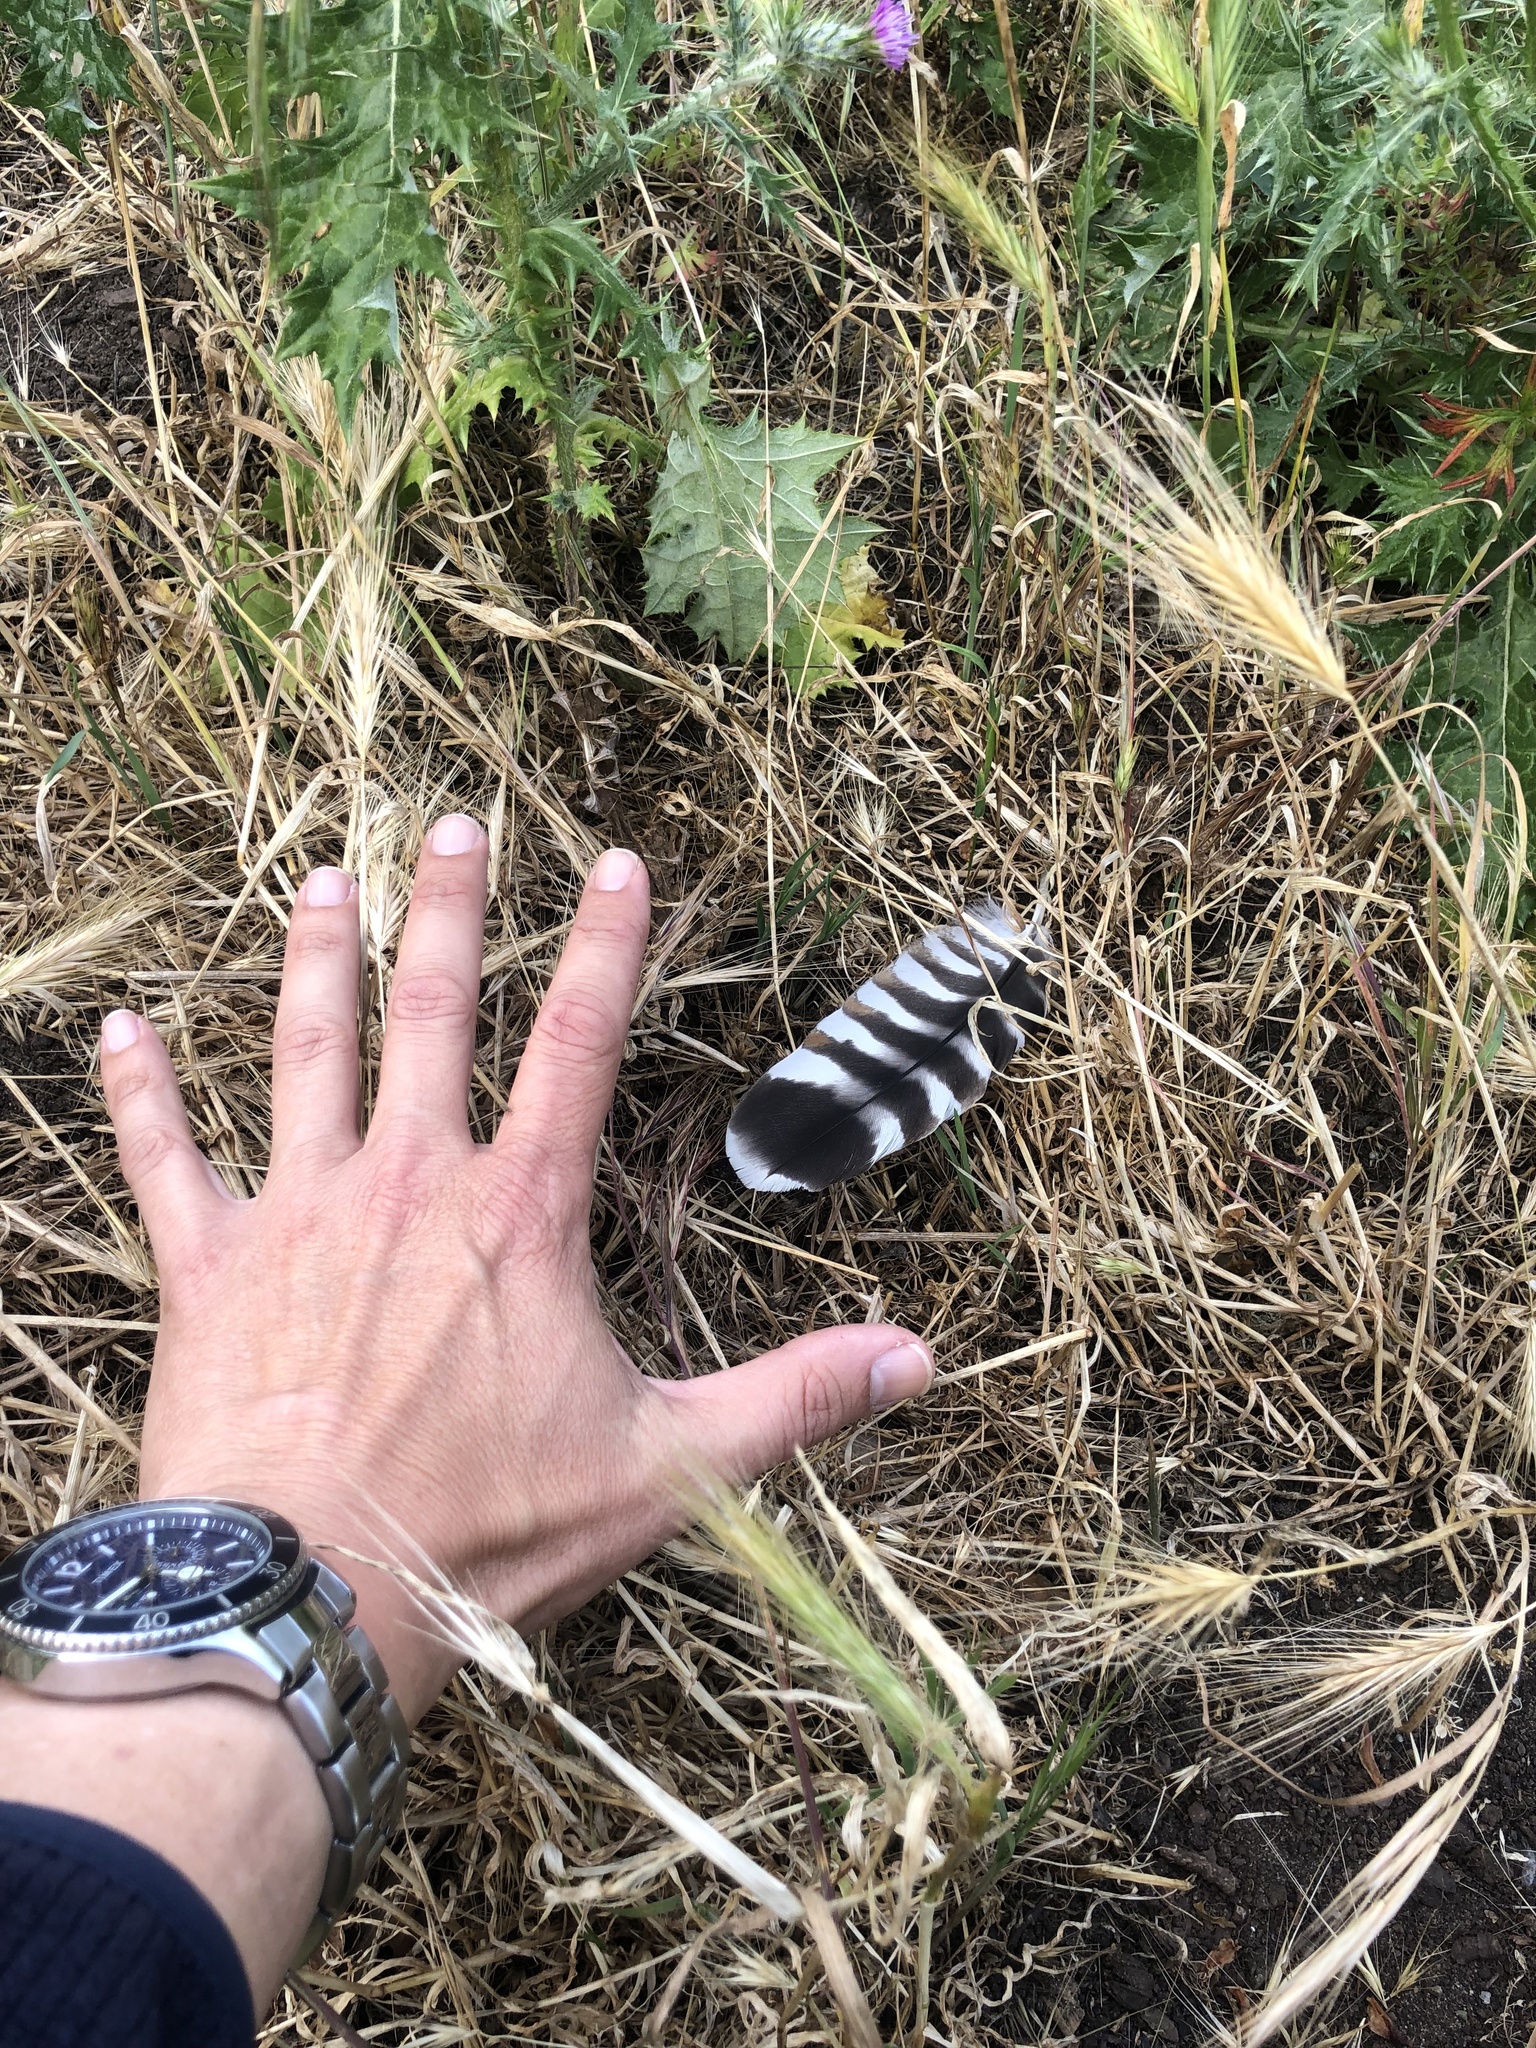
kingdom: Animalia
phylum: Chordata
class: Aves
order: Accipitriformes
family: Accipitridae
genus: Buteo
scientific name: Buteo lineatus
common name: Red-shouldered hawk
